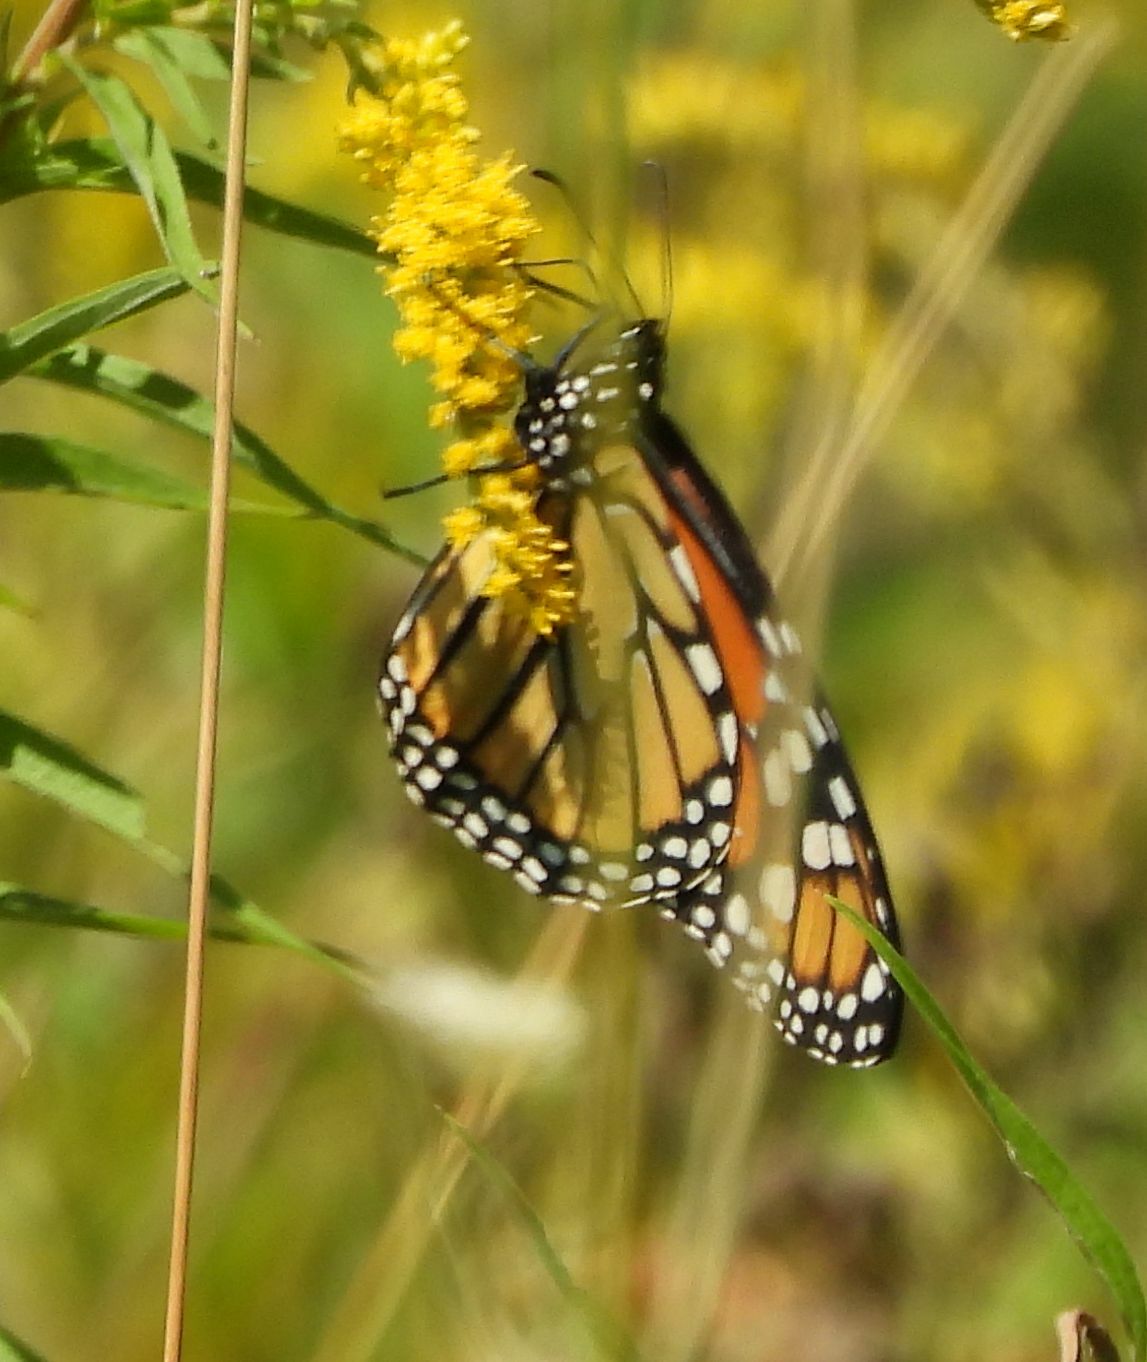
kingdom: Animalia
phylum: Arthropoda
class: Insecta
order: Lepidoptera
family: Nymphalidae
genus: Danaus
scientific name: Danaus plexippus
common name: Monarch
